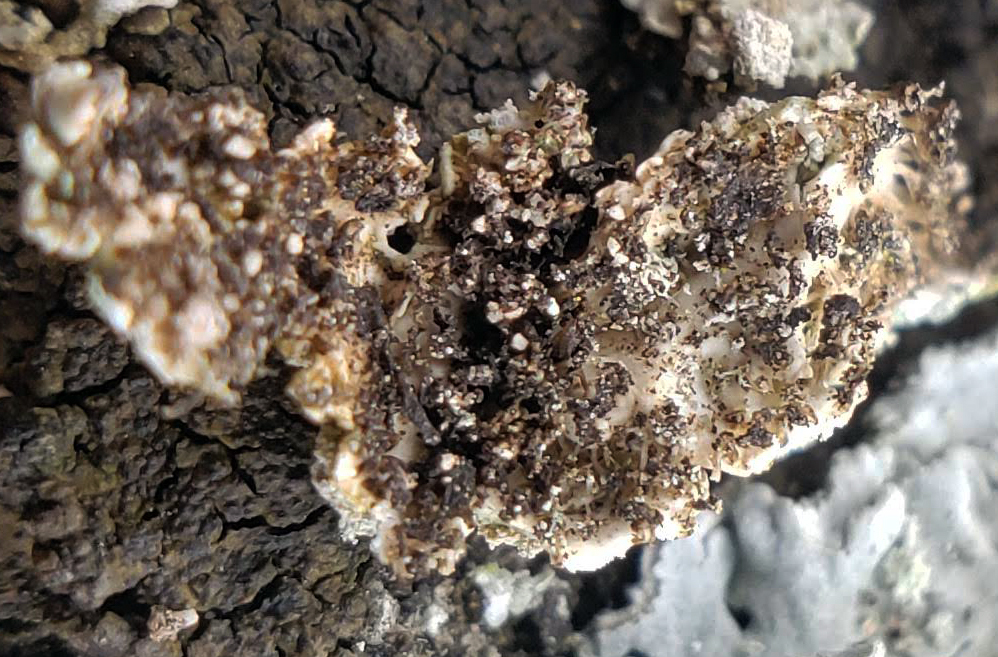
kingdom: Fungi
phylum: Ascomycota
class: Lecanoromycetes
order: Caliciales
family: Physciaceae
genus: Physcia
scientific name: Physcia caesia
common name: Blue-gray rosette lichen
